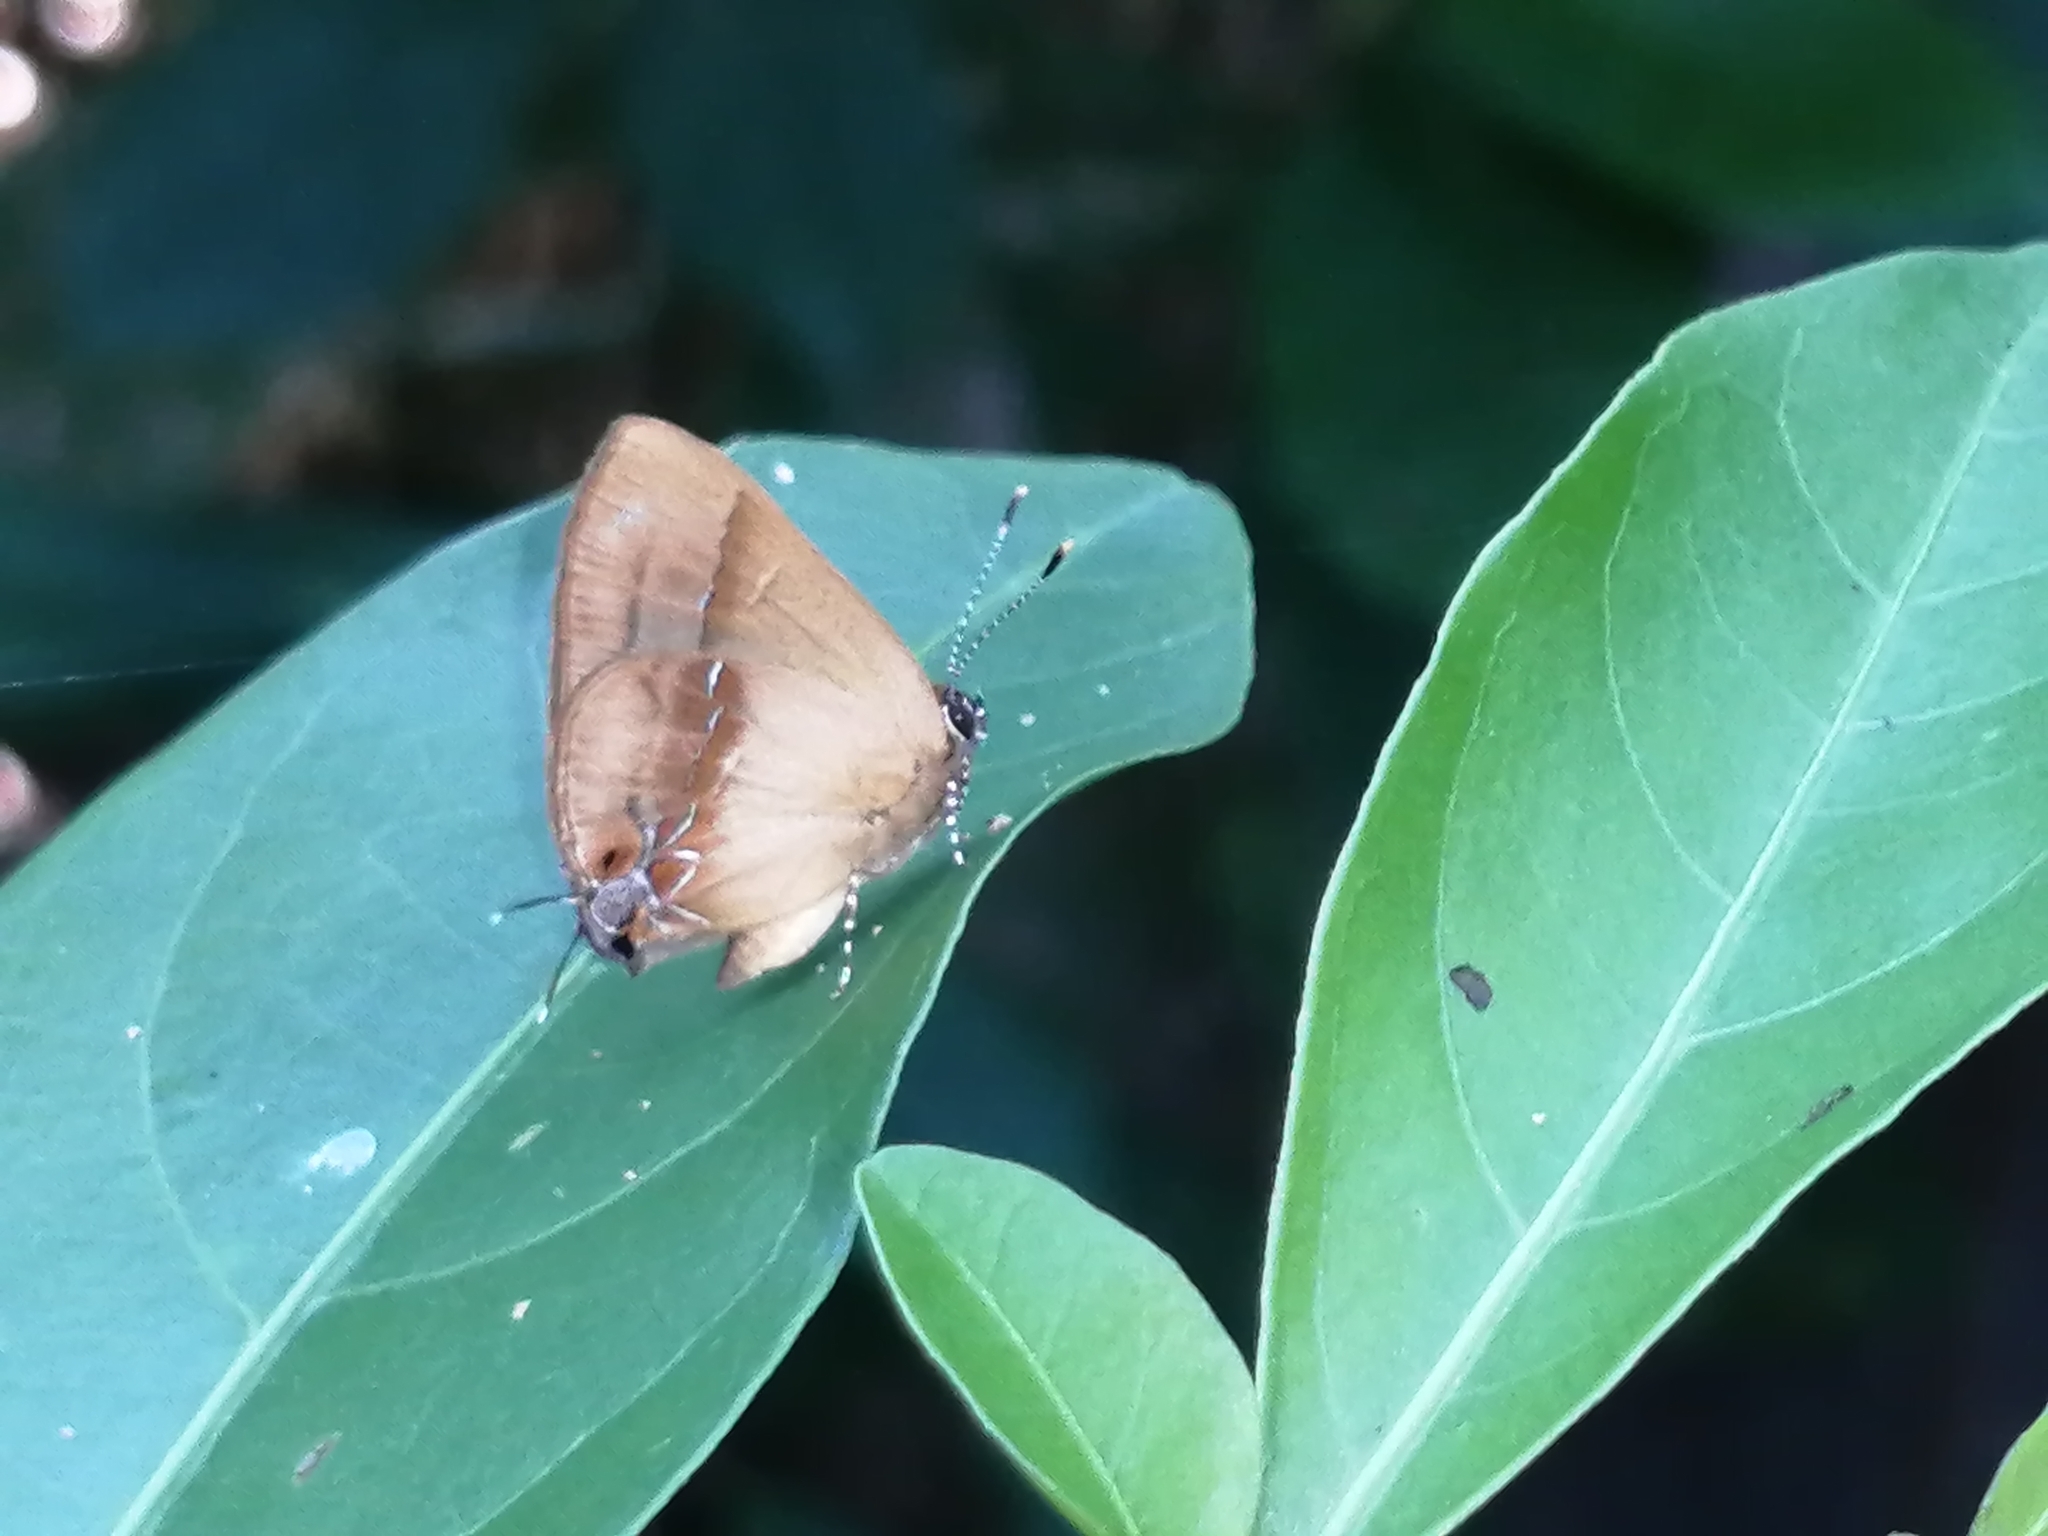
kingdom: Animalia
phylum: Arthropoda
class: Insecta
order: Lepidoptera
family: Lycaenidae
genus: Thecla
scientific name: Thecla demonassa
